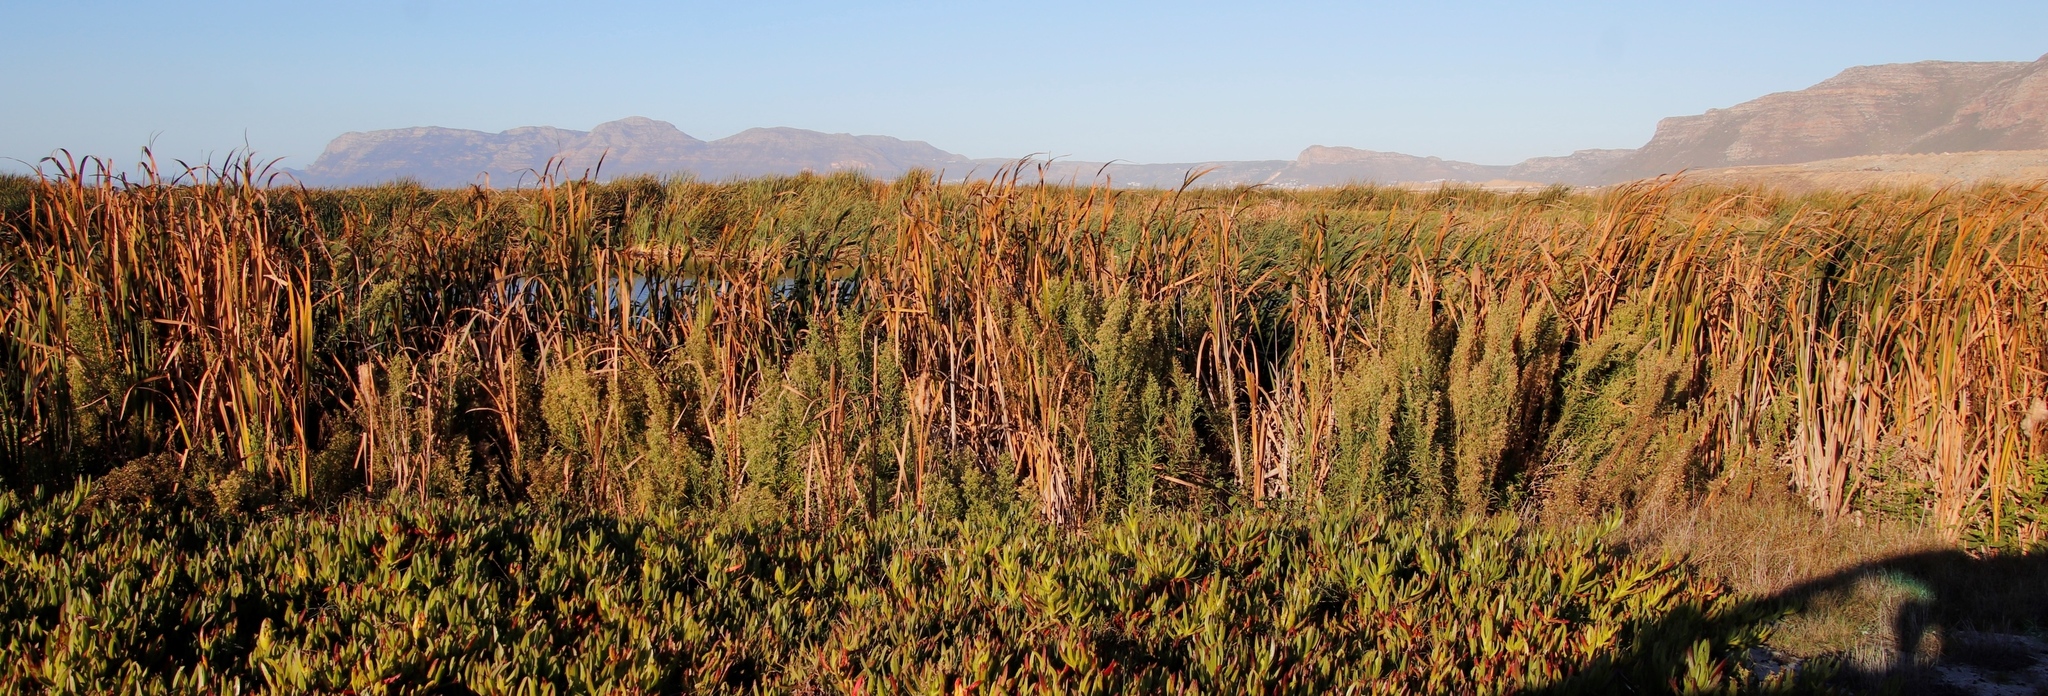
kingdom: Plantae
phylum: Tracheophyta
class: Liliopsida
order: Poales
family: Typhaceae
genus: Typha
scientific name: Typha capensis
